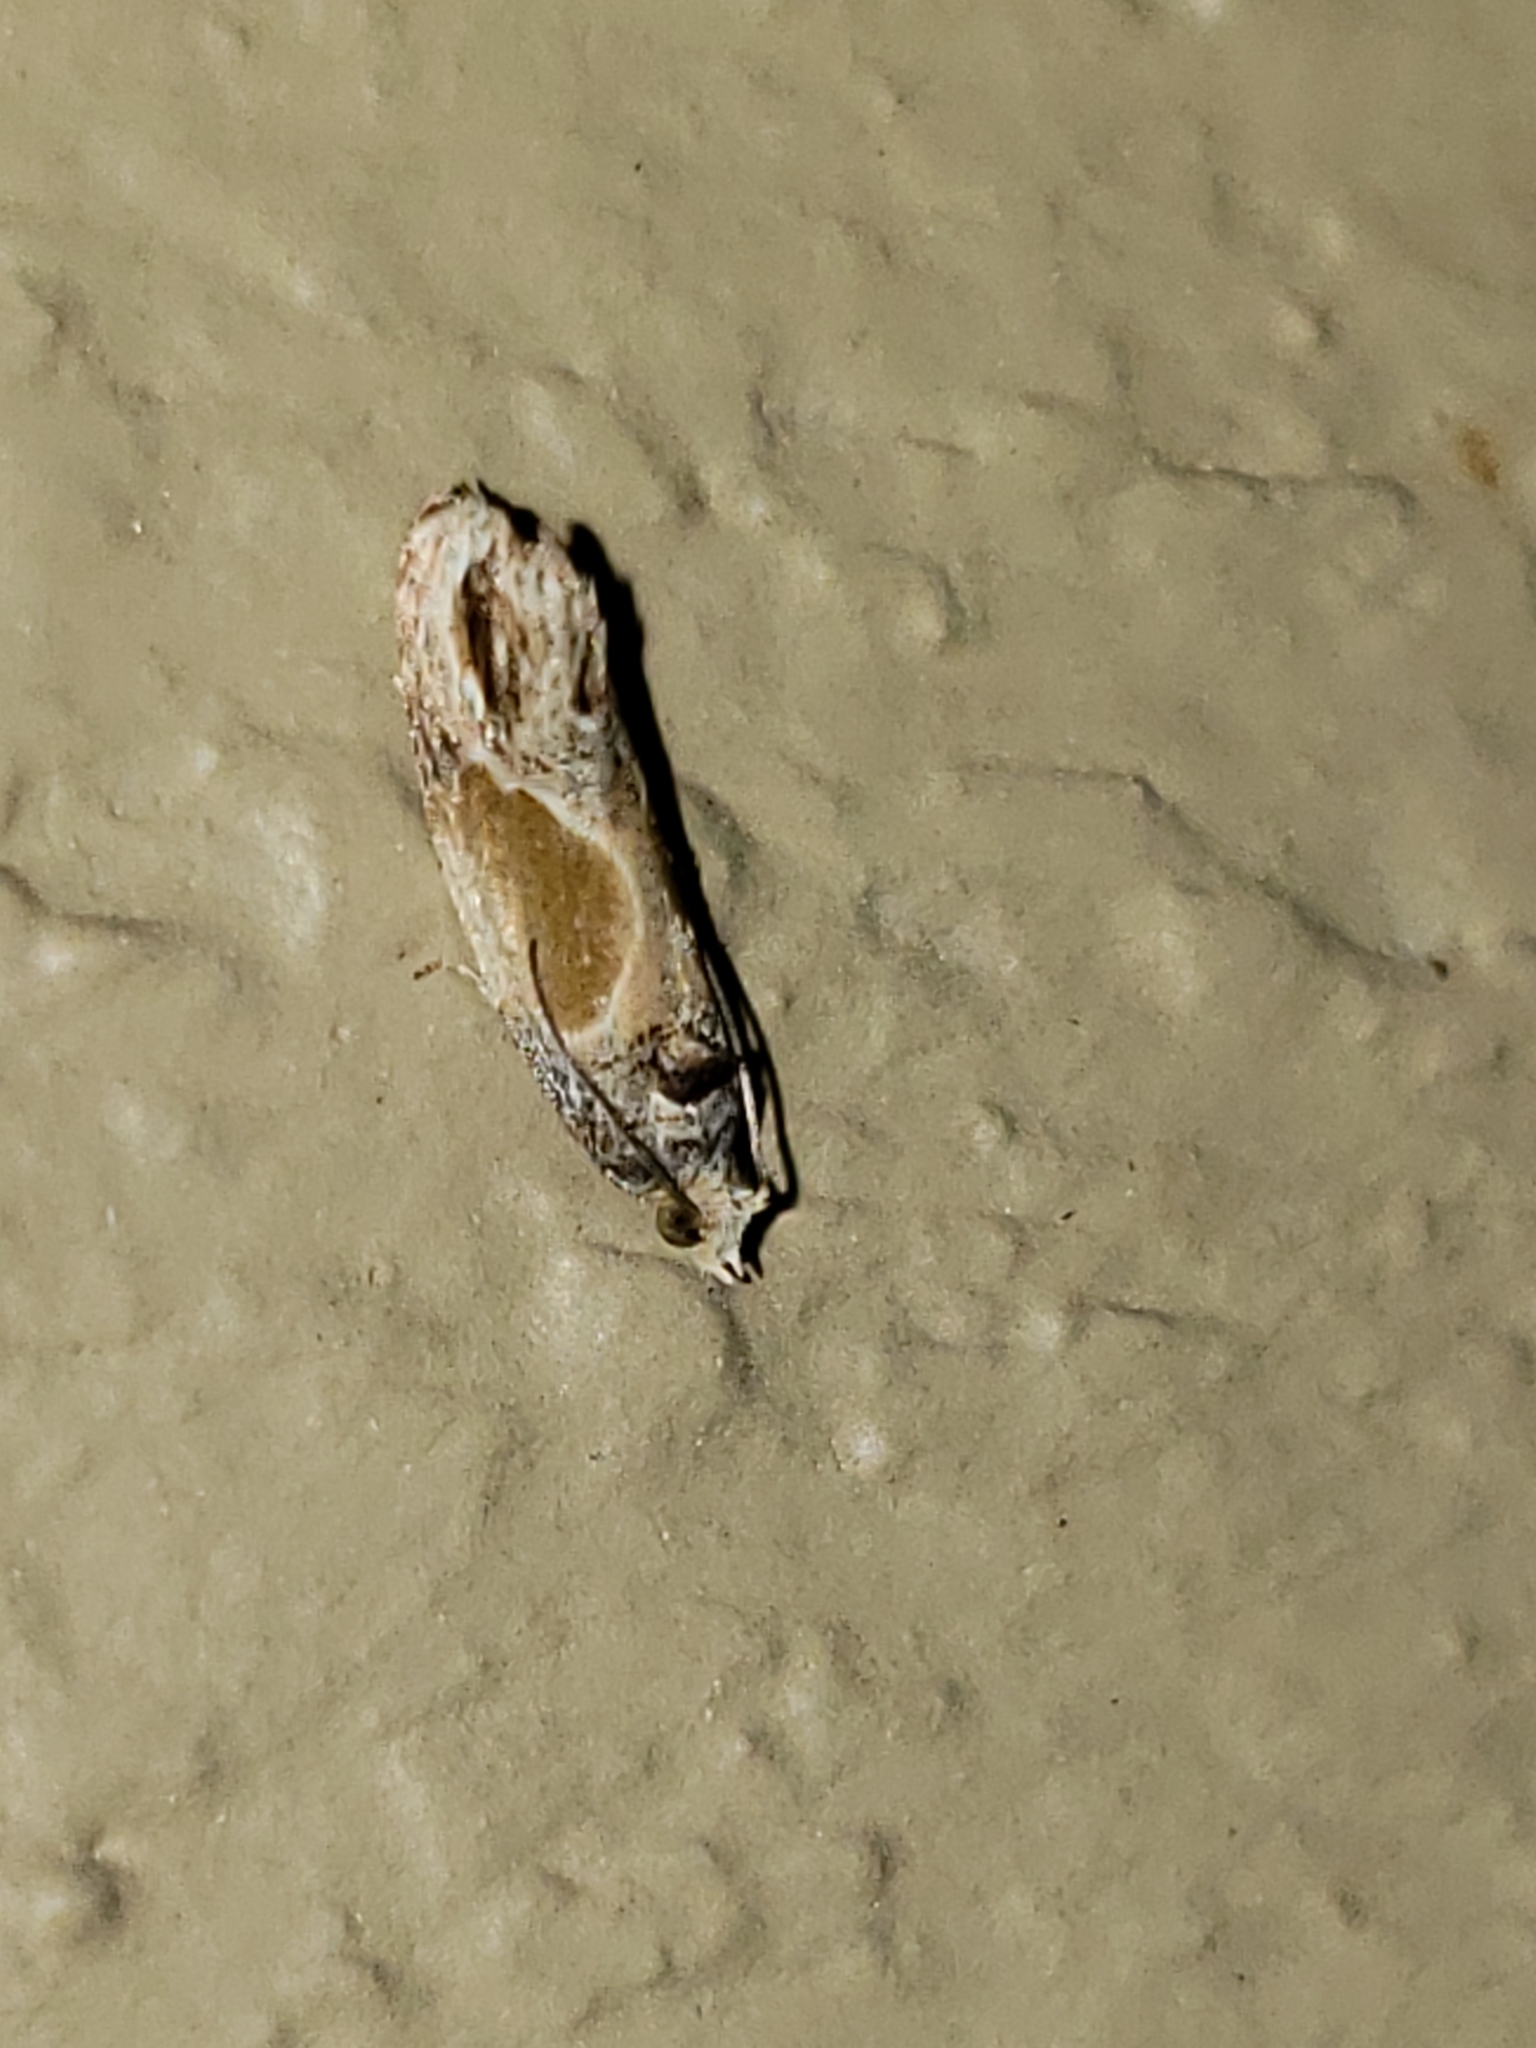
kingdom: Animalia
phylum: Arthropoda
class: Insecta
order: Lepidoptera
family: Tortricidae
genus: Eumarozia
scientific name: Eumarozia malachitana
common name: Sculptured moth
